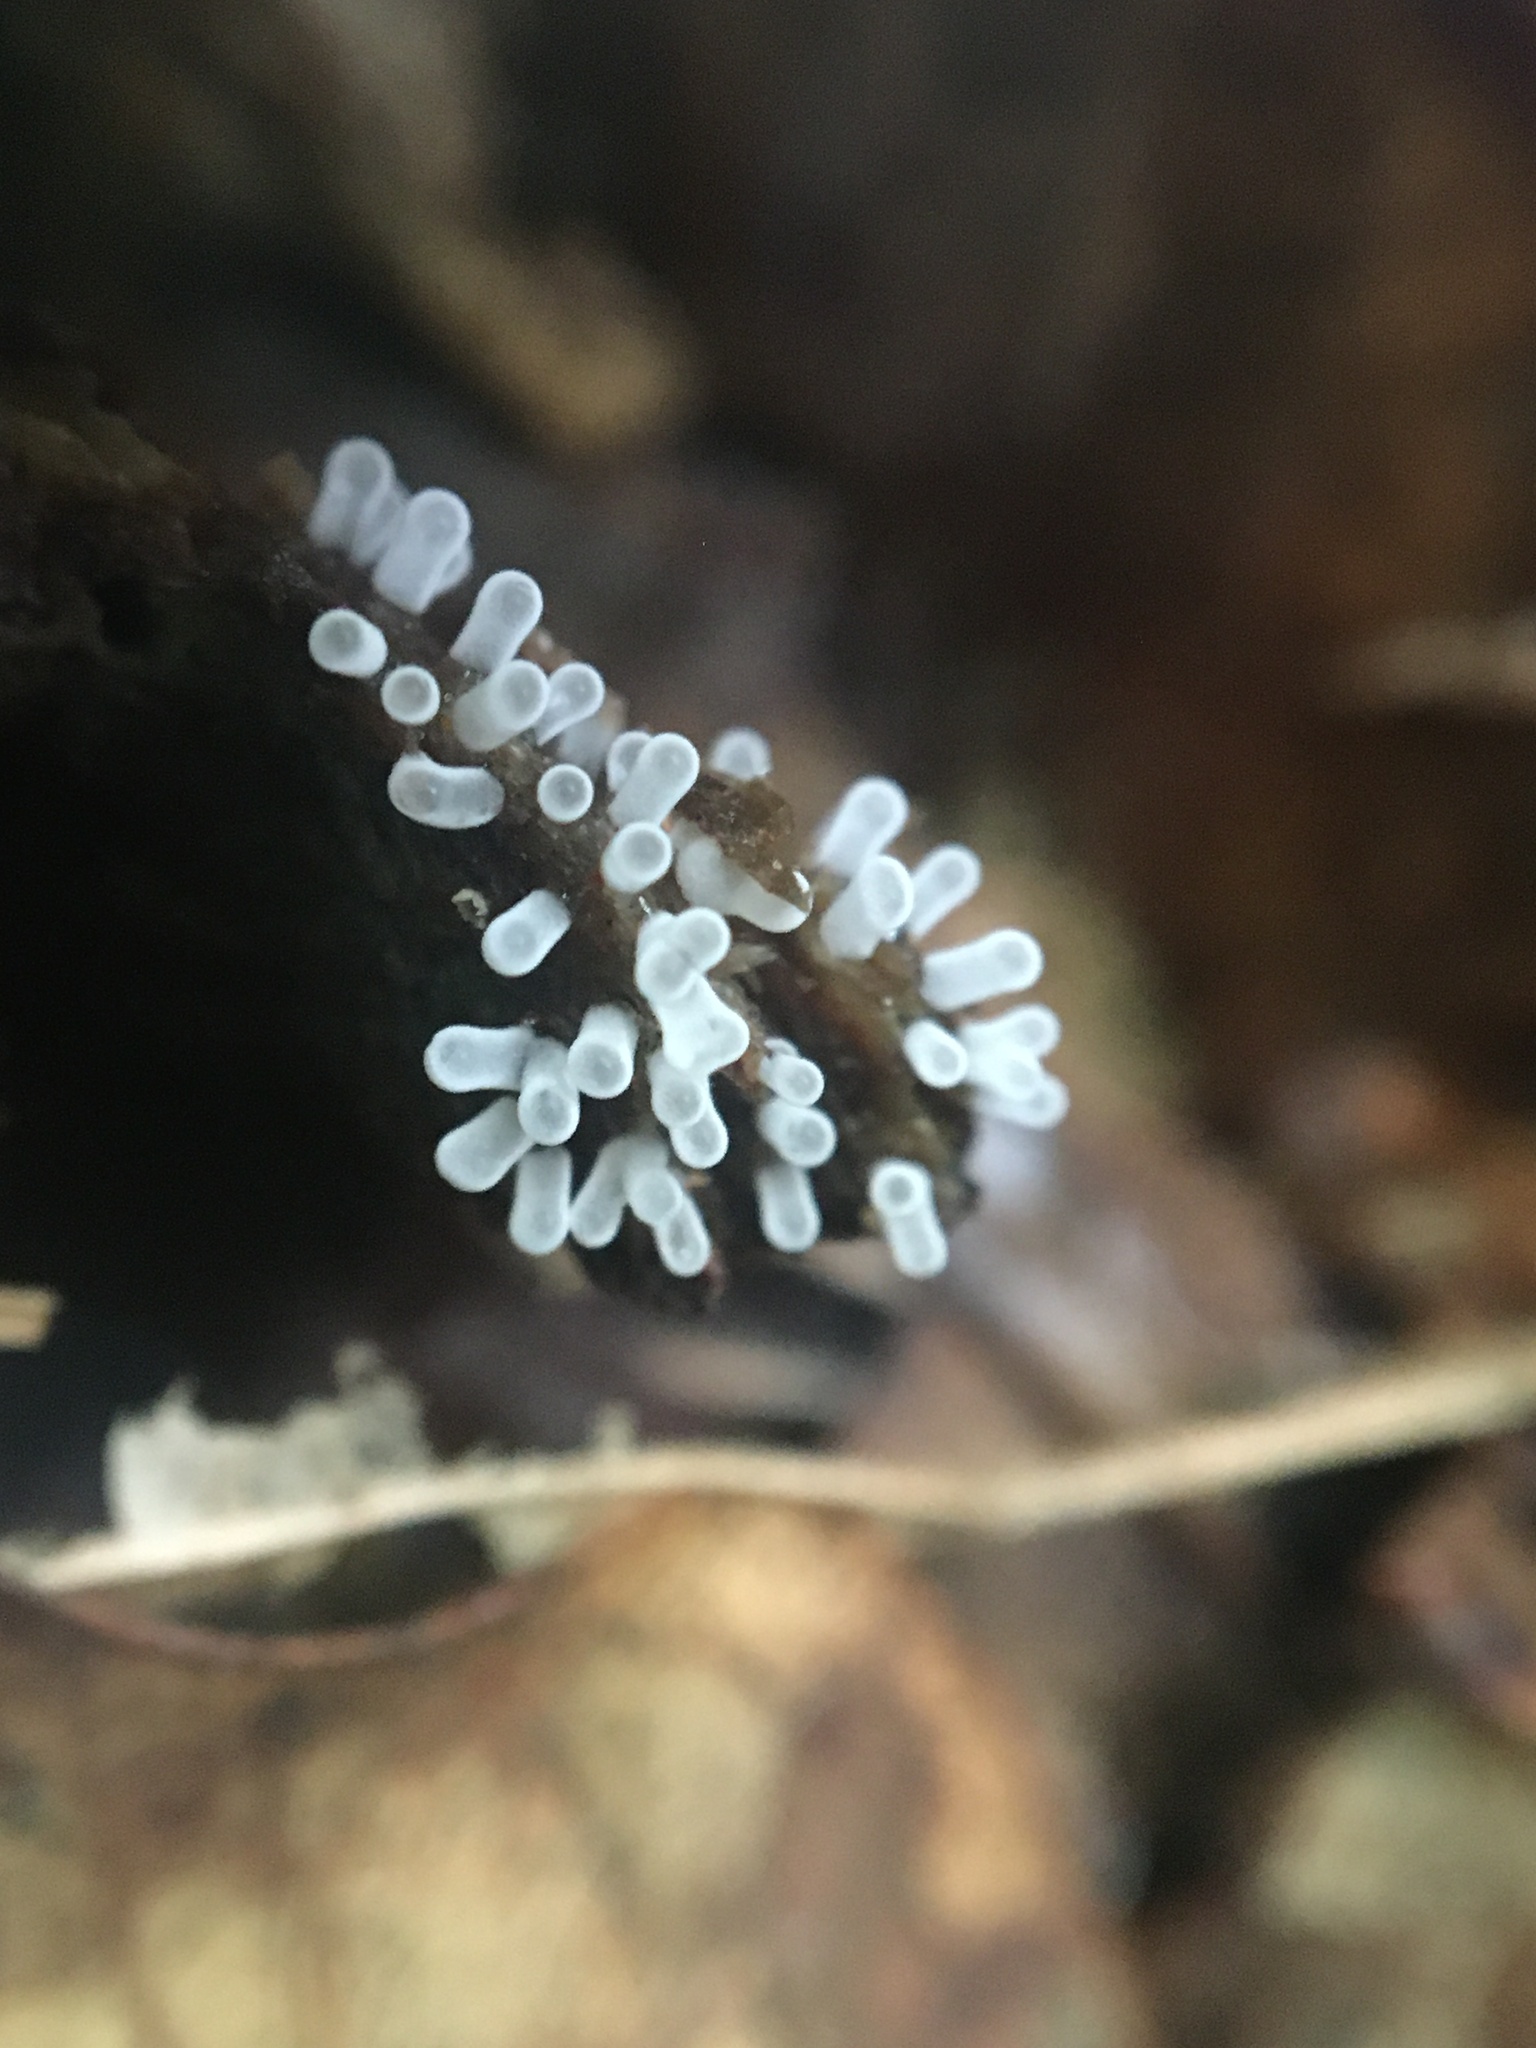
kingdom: Protozoa
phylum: Mycetozoa
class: Protosteliomycetes
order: Ceratiomyxales
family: Ceratiomyxaceae
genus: Ceratiomyxa
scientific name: Ceratiomyxa fruticulosa
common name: Honeycomb coral slime mold
